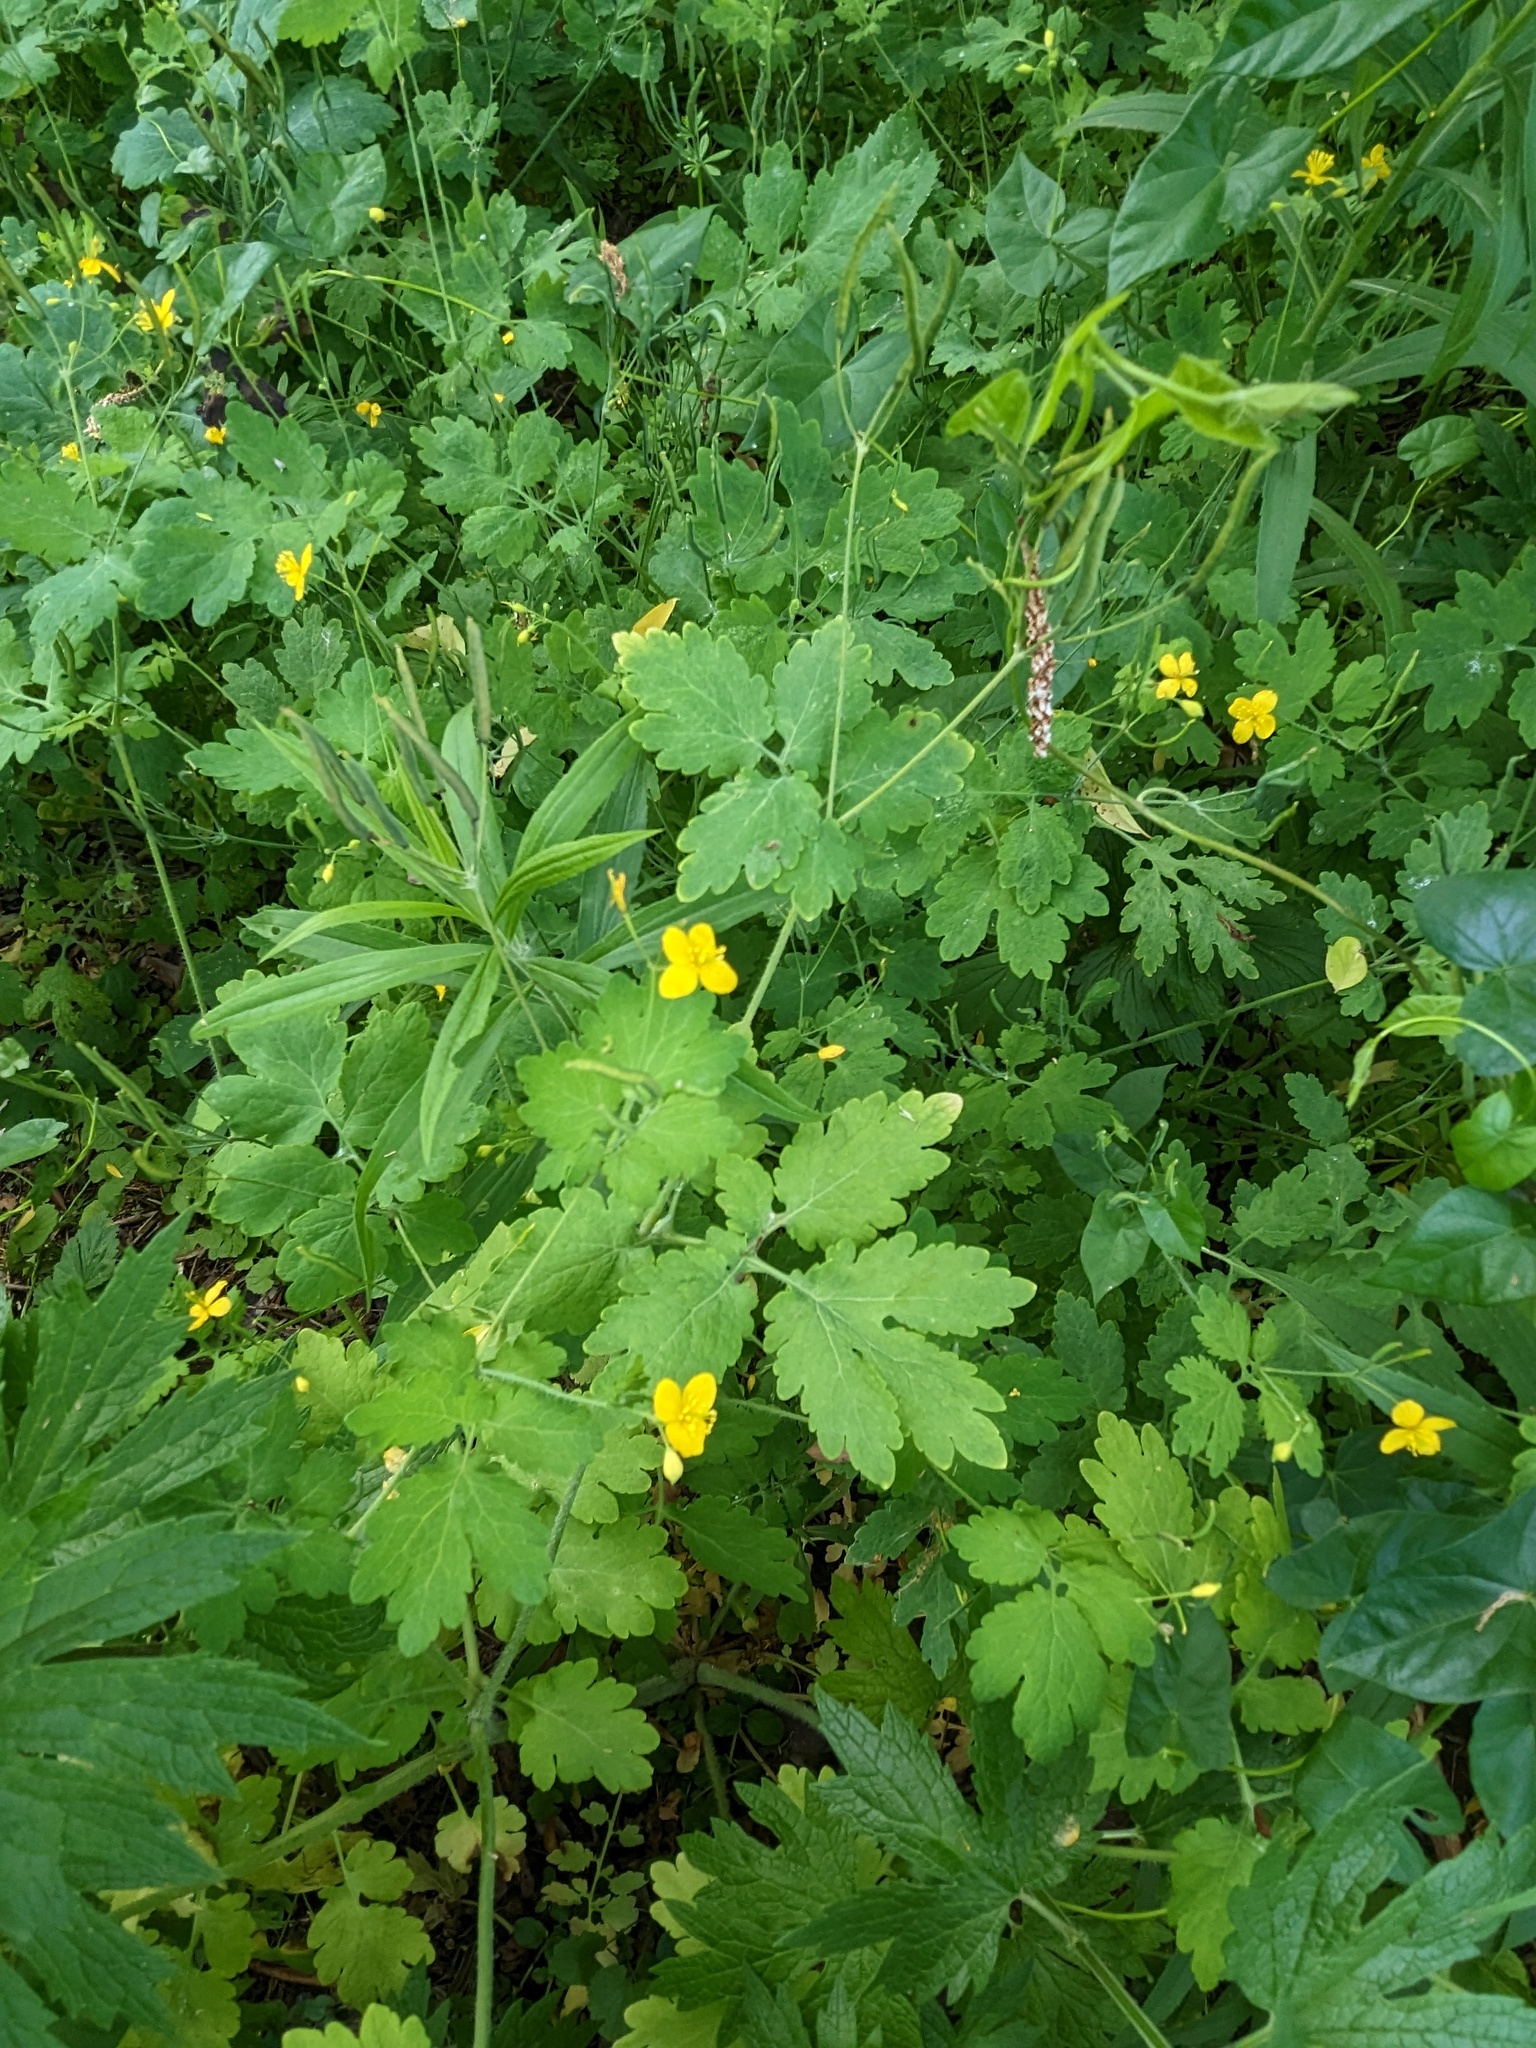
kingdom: Plantae
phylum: Tracheophyta
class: Magnoliopsida
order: Ranunculales
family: Papaveraceae
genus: Chelidonium
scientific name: Chelidonium majus
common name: Greater celandine
